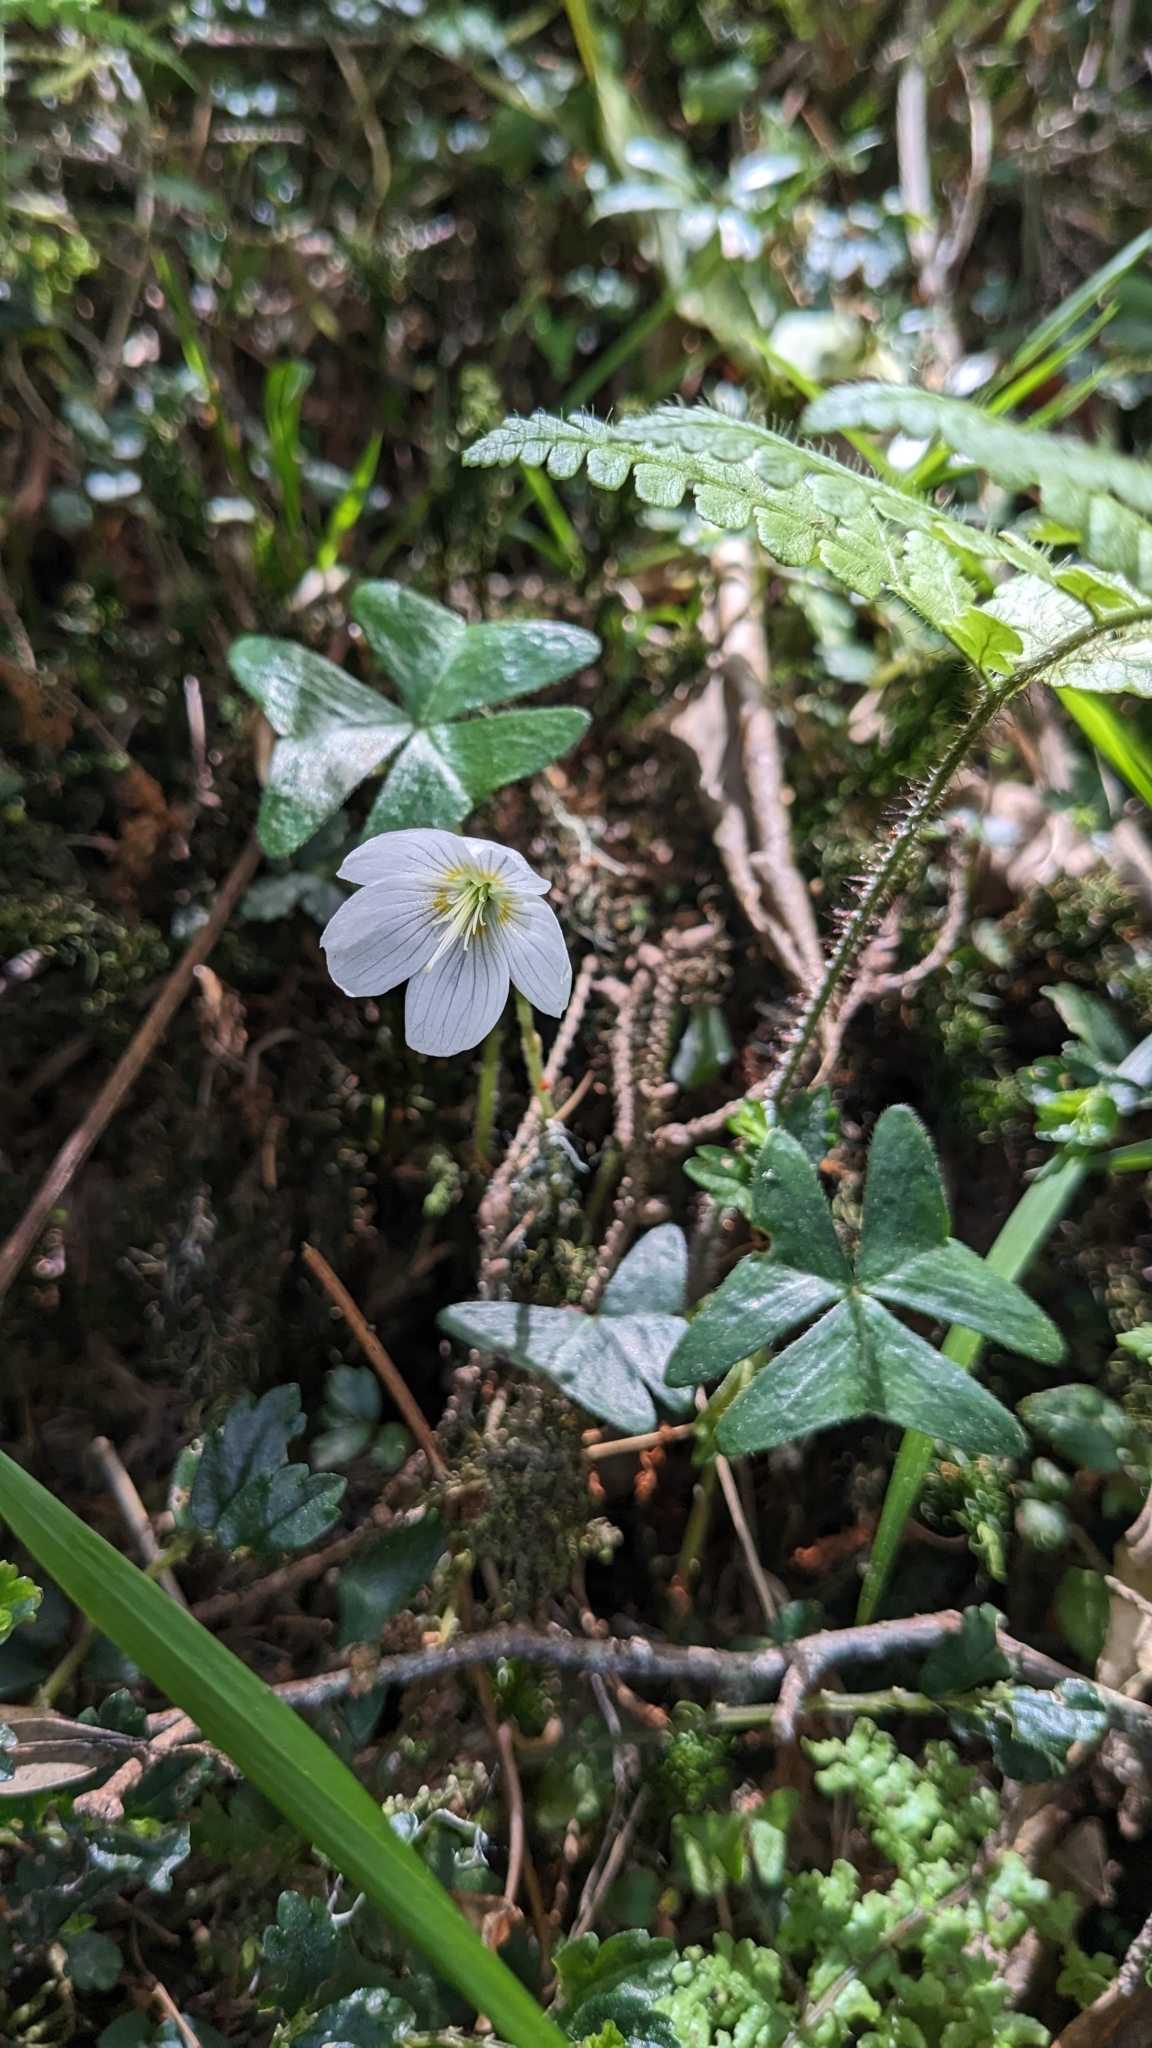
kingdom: Plantae
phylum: Tracheophyta
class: Magnoliopsida
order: Oxalidales
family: Oxalidaceae
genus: Oxalis
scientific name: Oxalis griffithii
